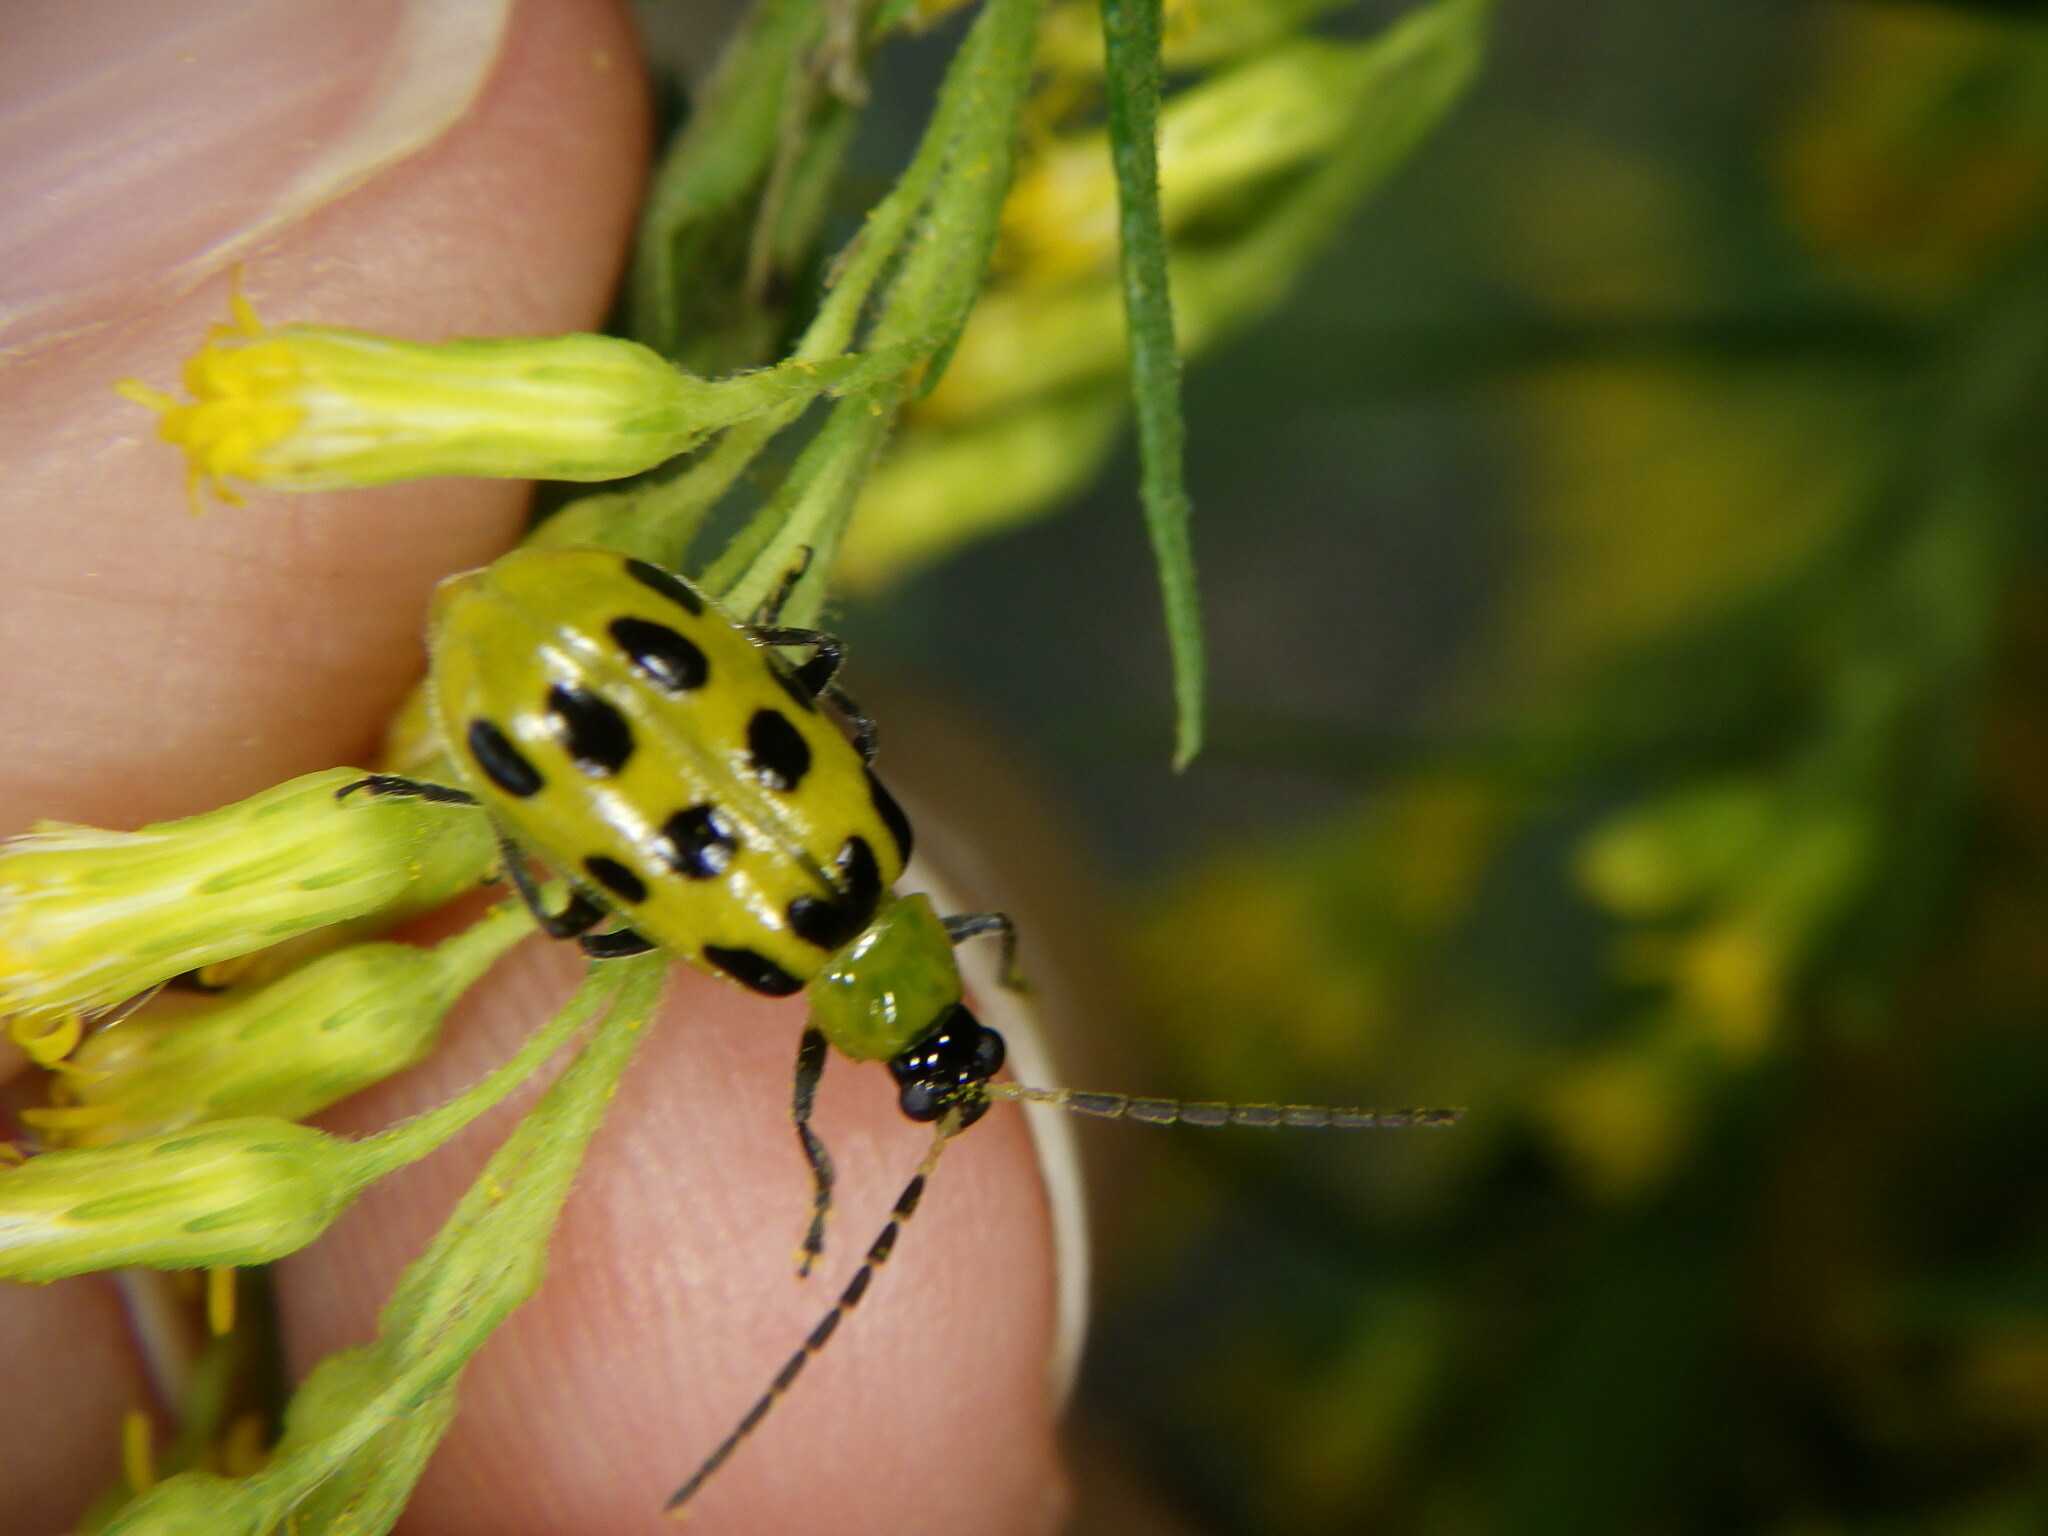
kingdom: Animalia
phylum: Arthropoda
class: Insecta
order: Coleoptera
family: Chrysomelidae
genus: Diabrotica
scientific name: Diabrotica undecimpunctata
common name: Spotted cucumber beetle
